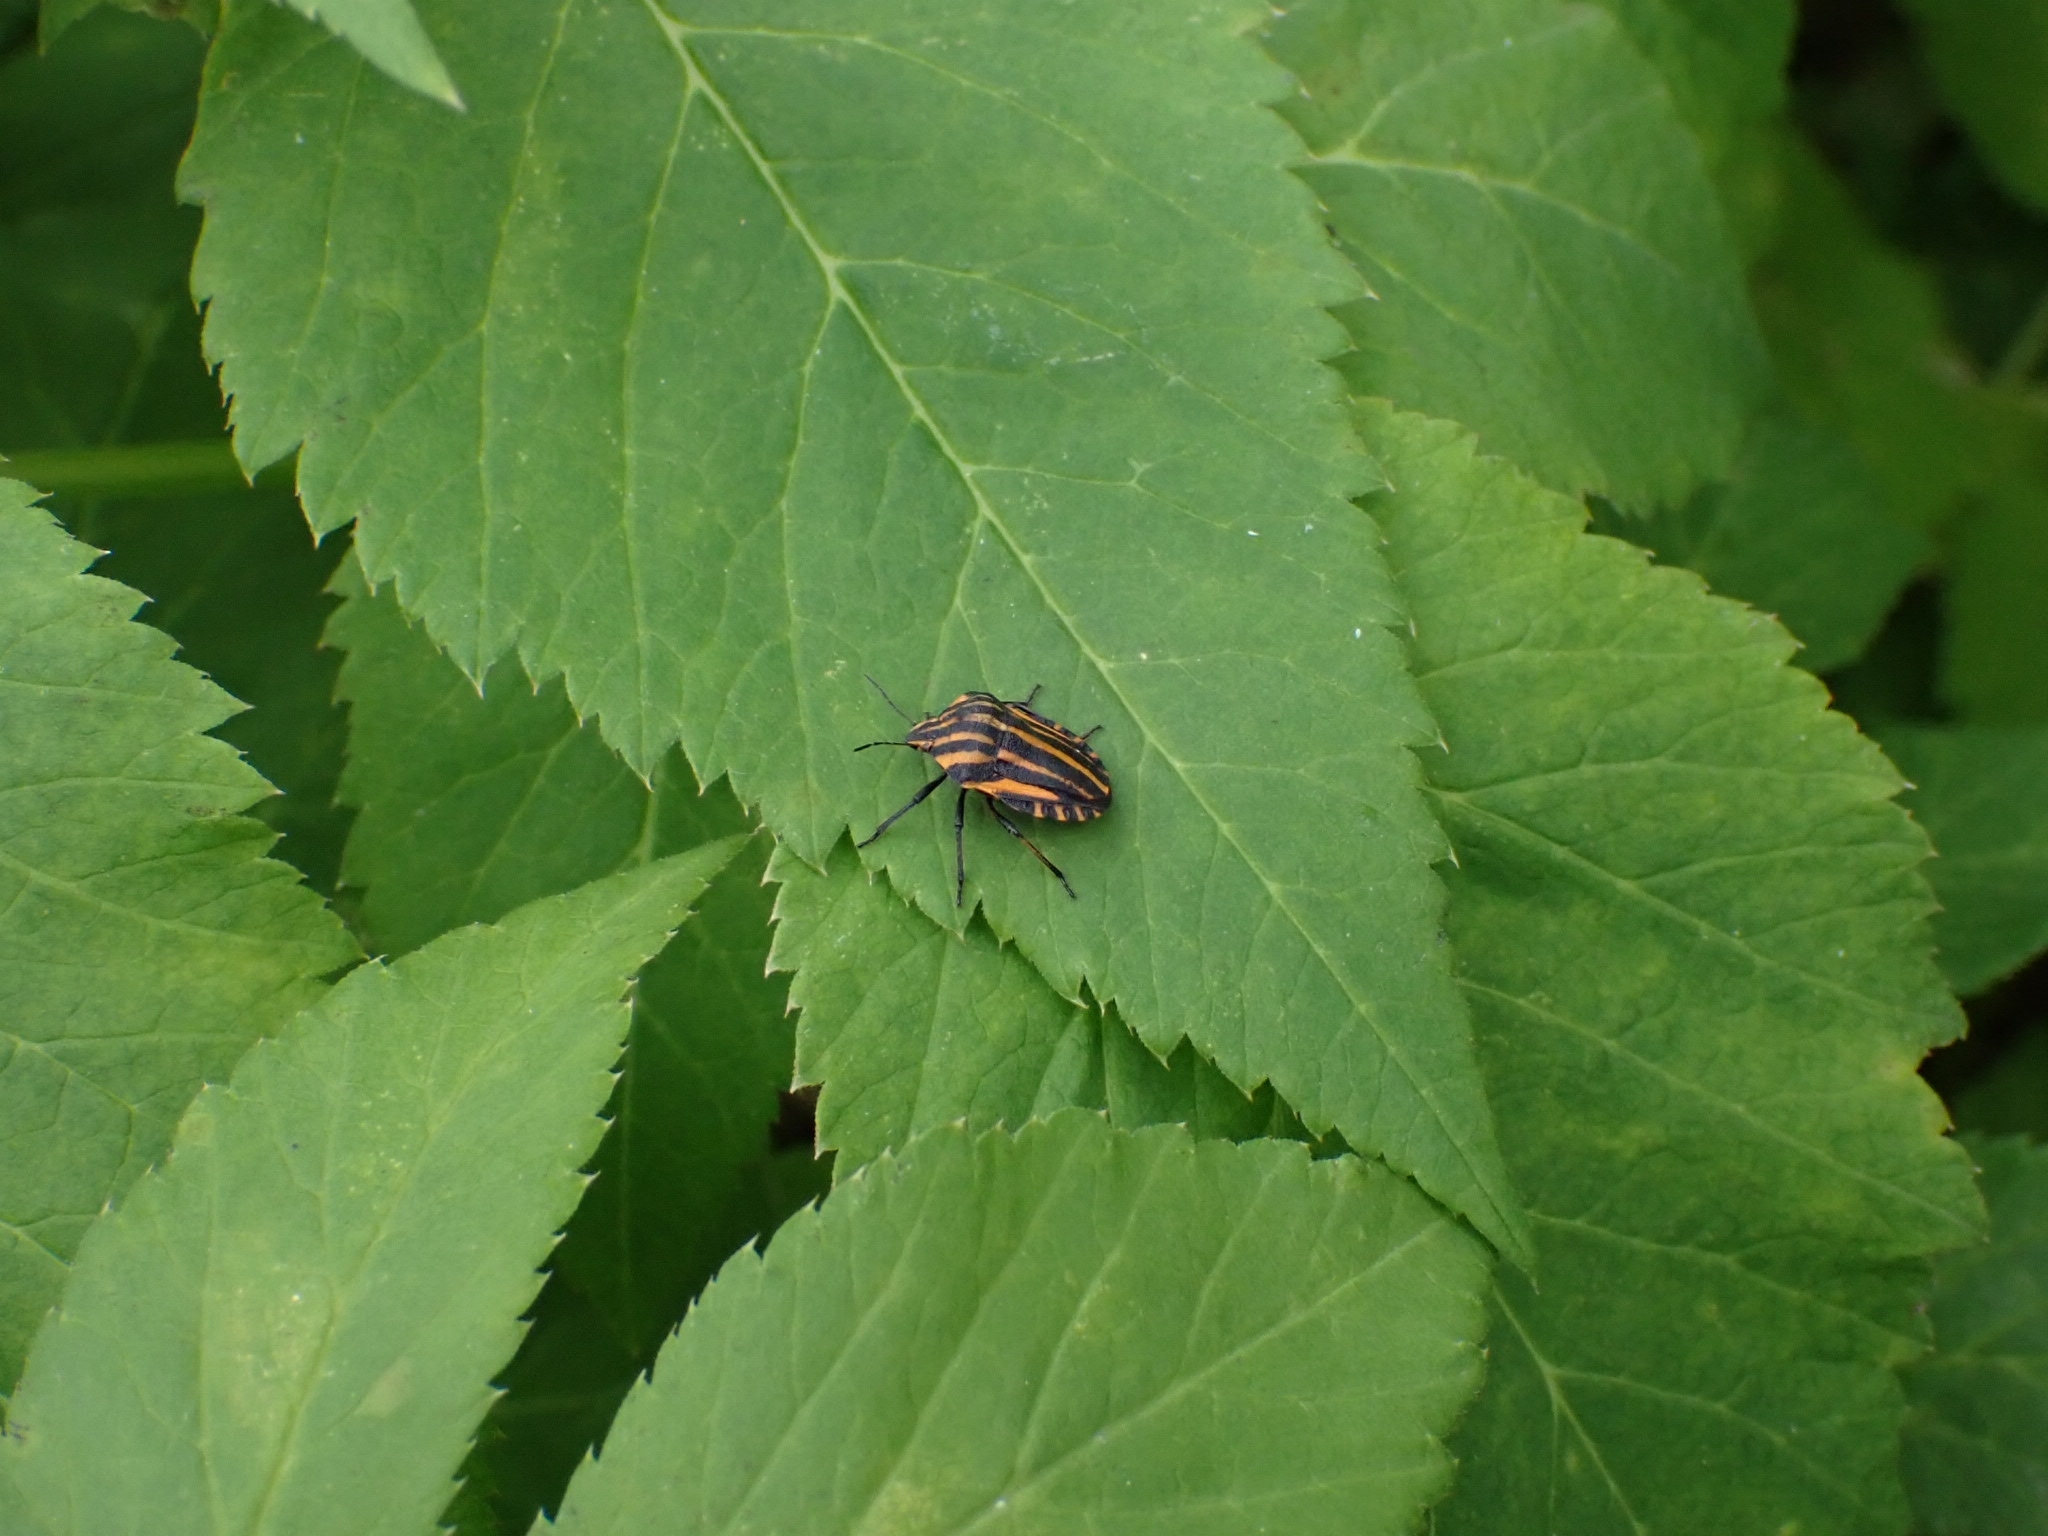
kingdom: Animalia
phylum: Arthropoda
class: Insecta
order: Hemiptera
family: Pentatomidae
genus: Graphosoma
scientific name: Graphosoma italicum
